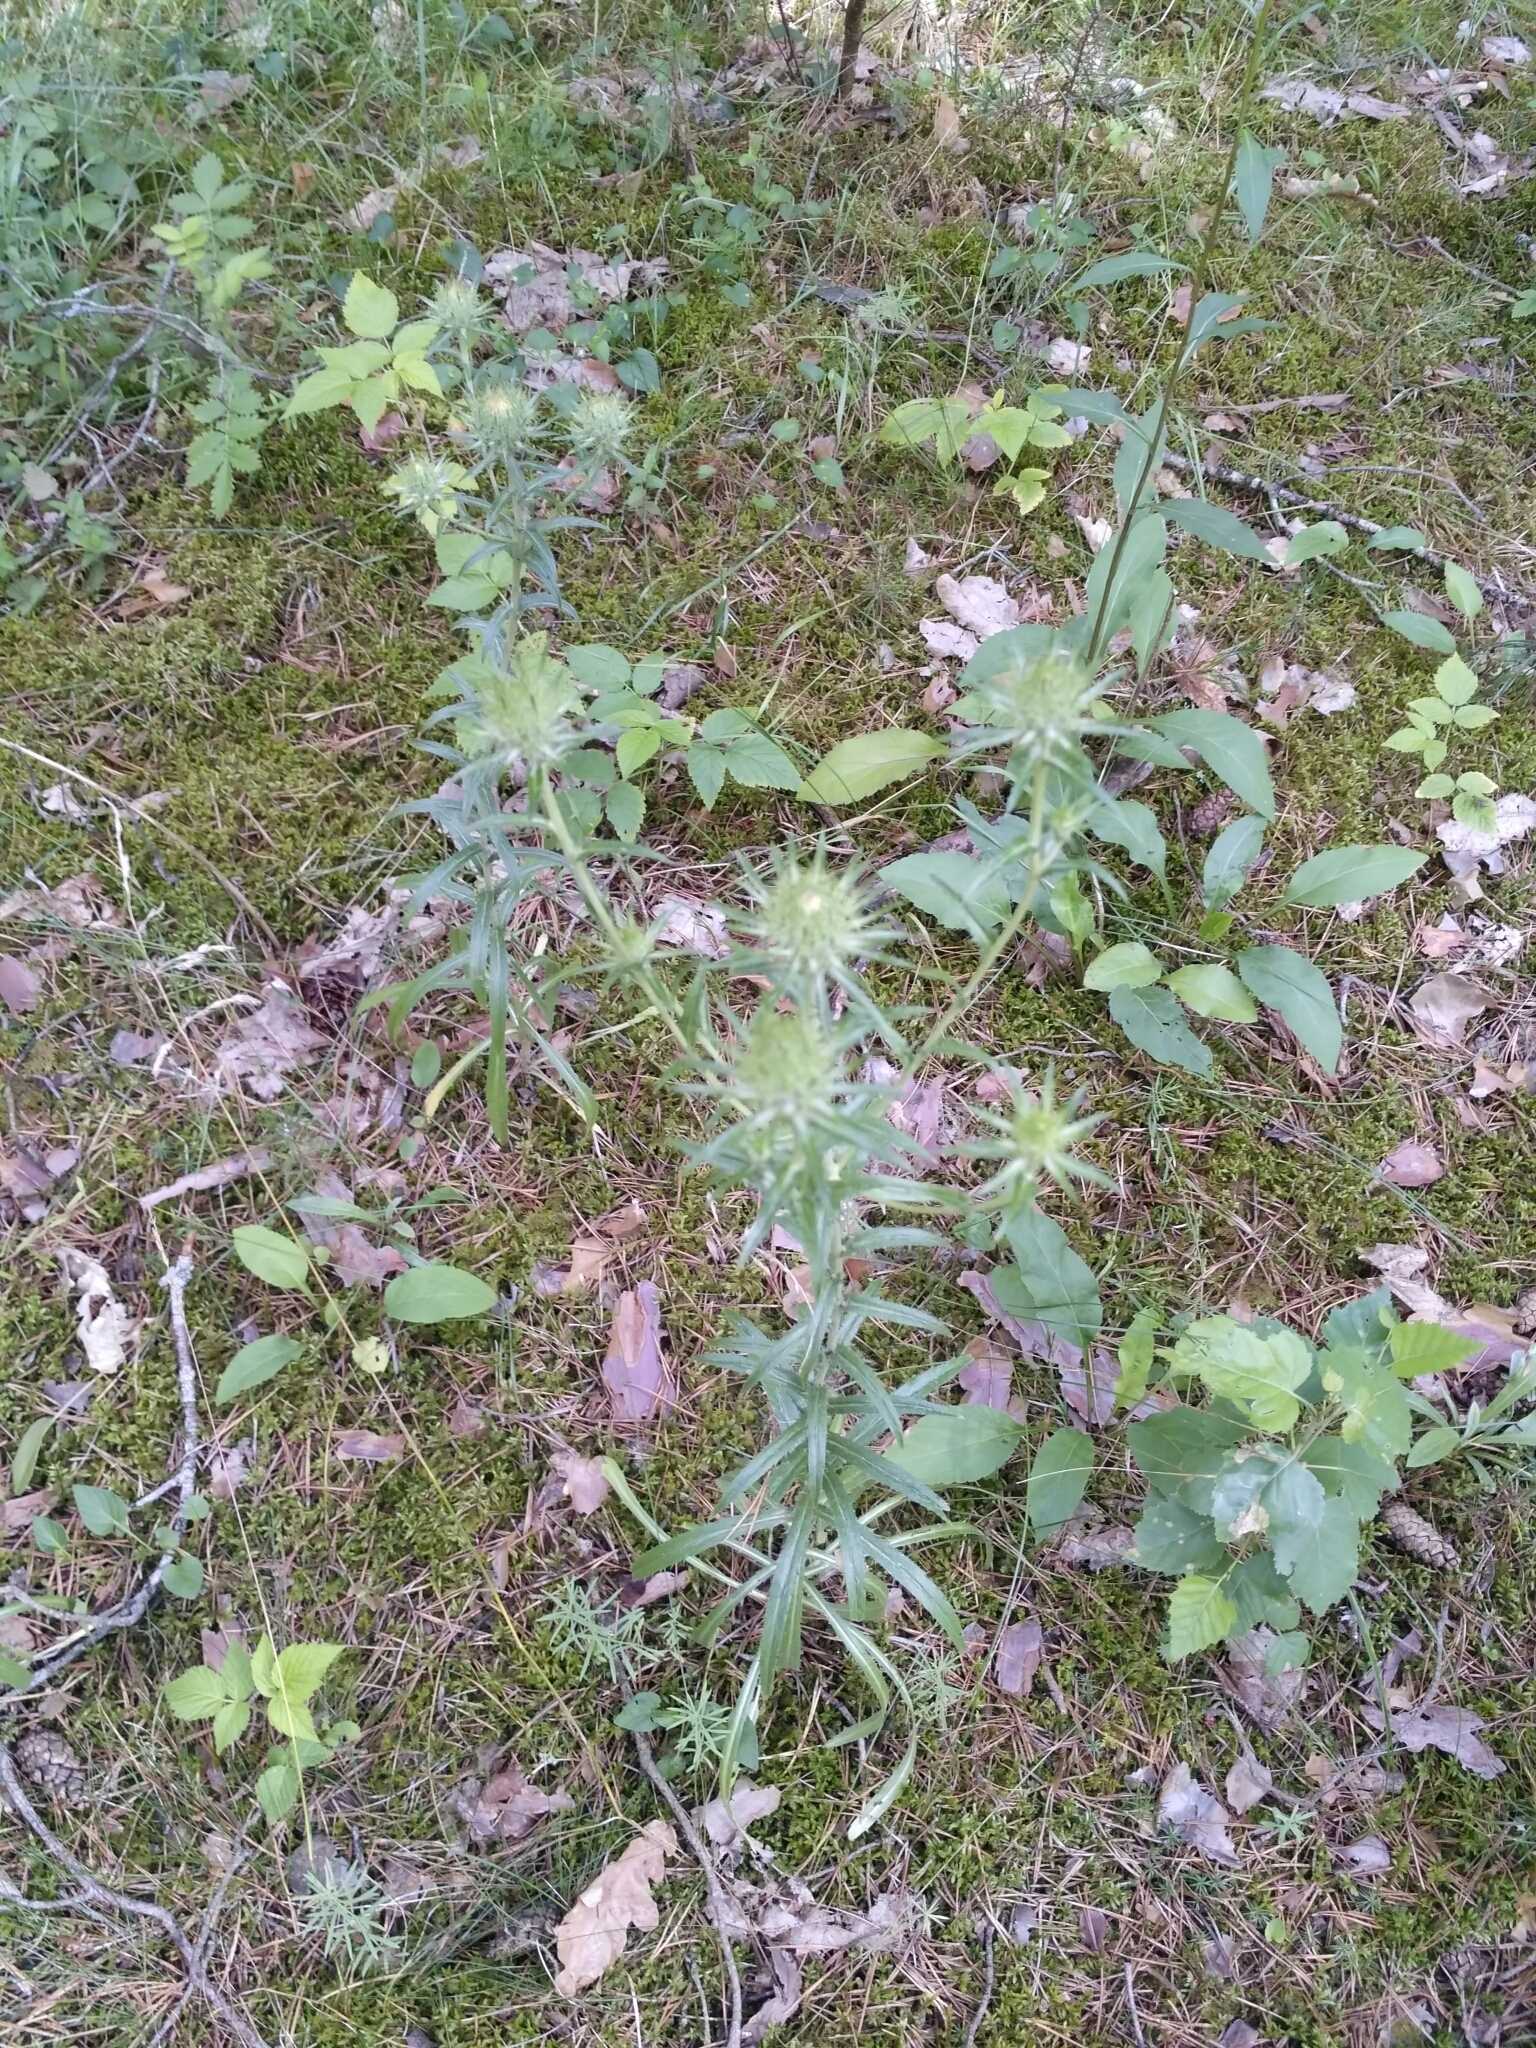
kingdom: Plantae
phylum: Tracheophyta
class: Magnoliopsida
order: Asterales
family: Asteraceae
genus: Carlina
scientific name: Carlina vulgaris
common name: Carline thistle
